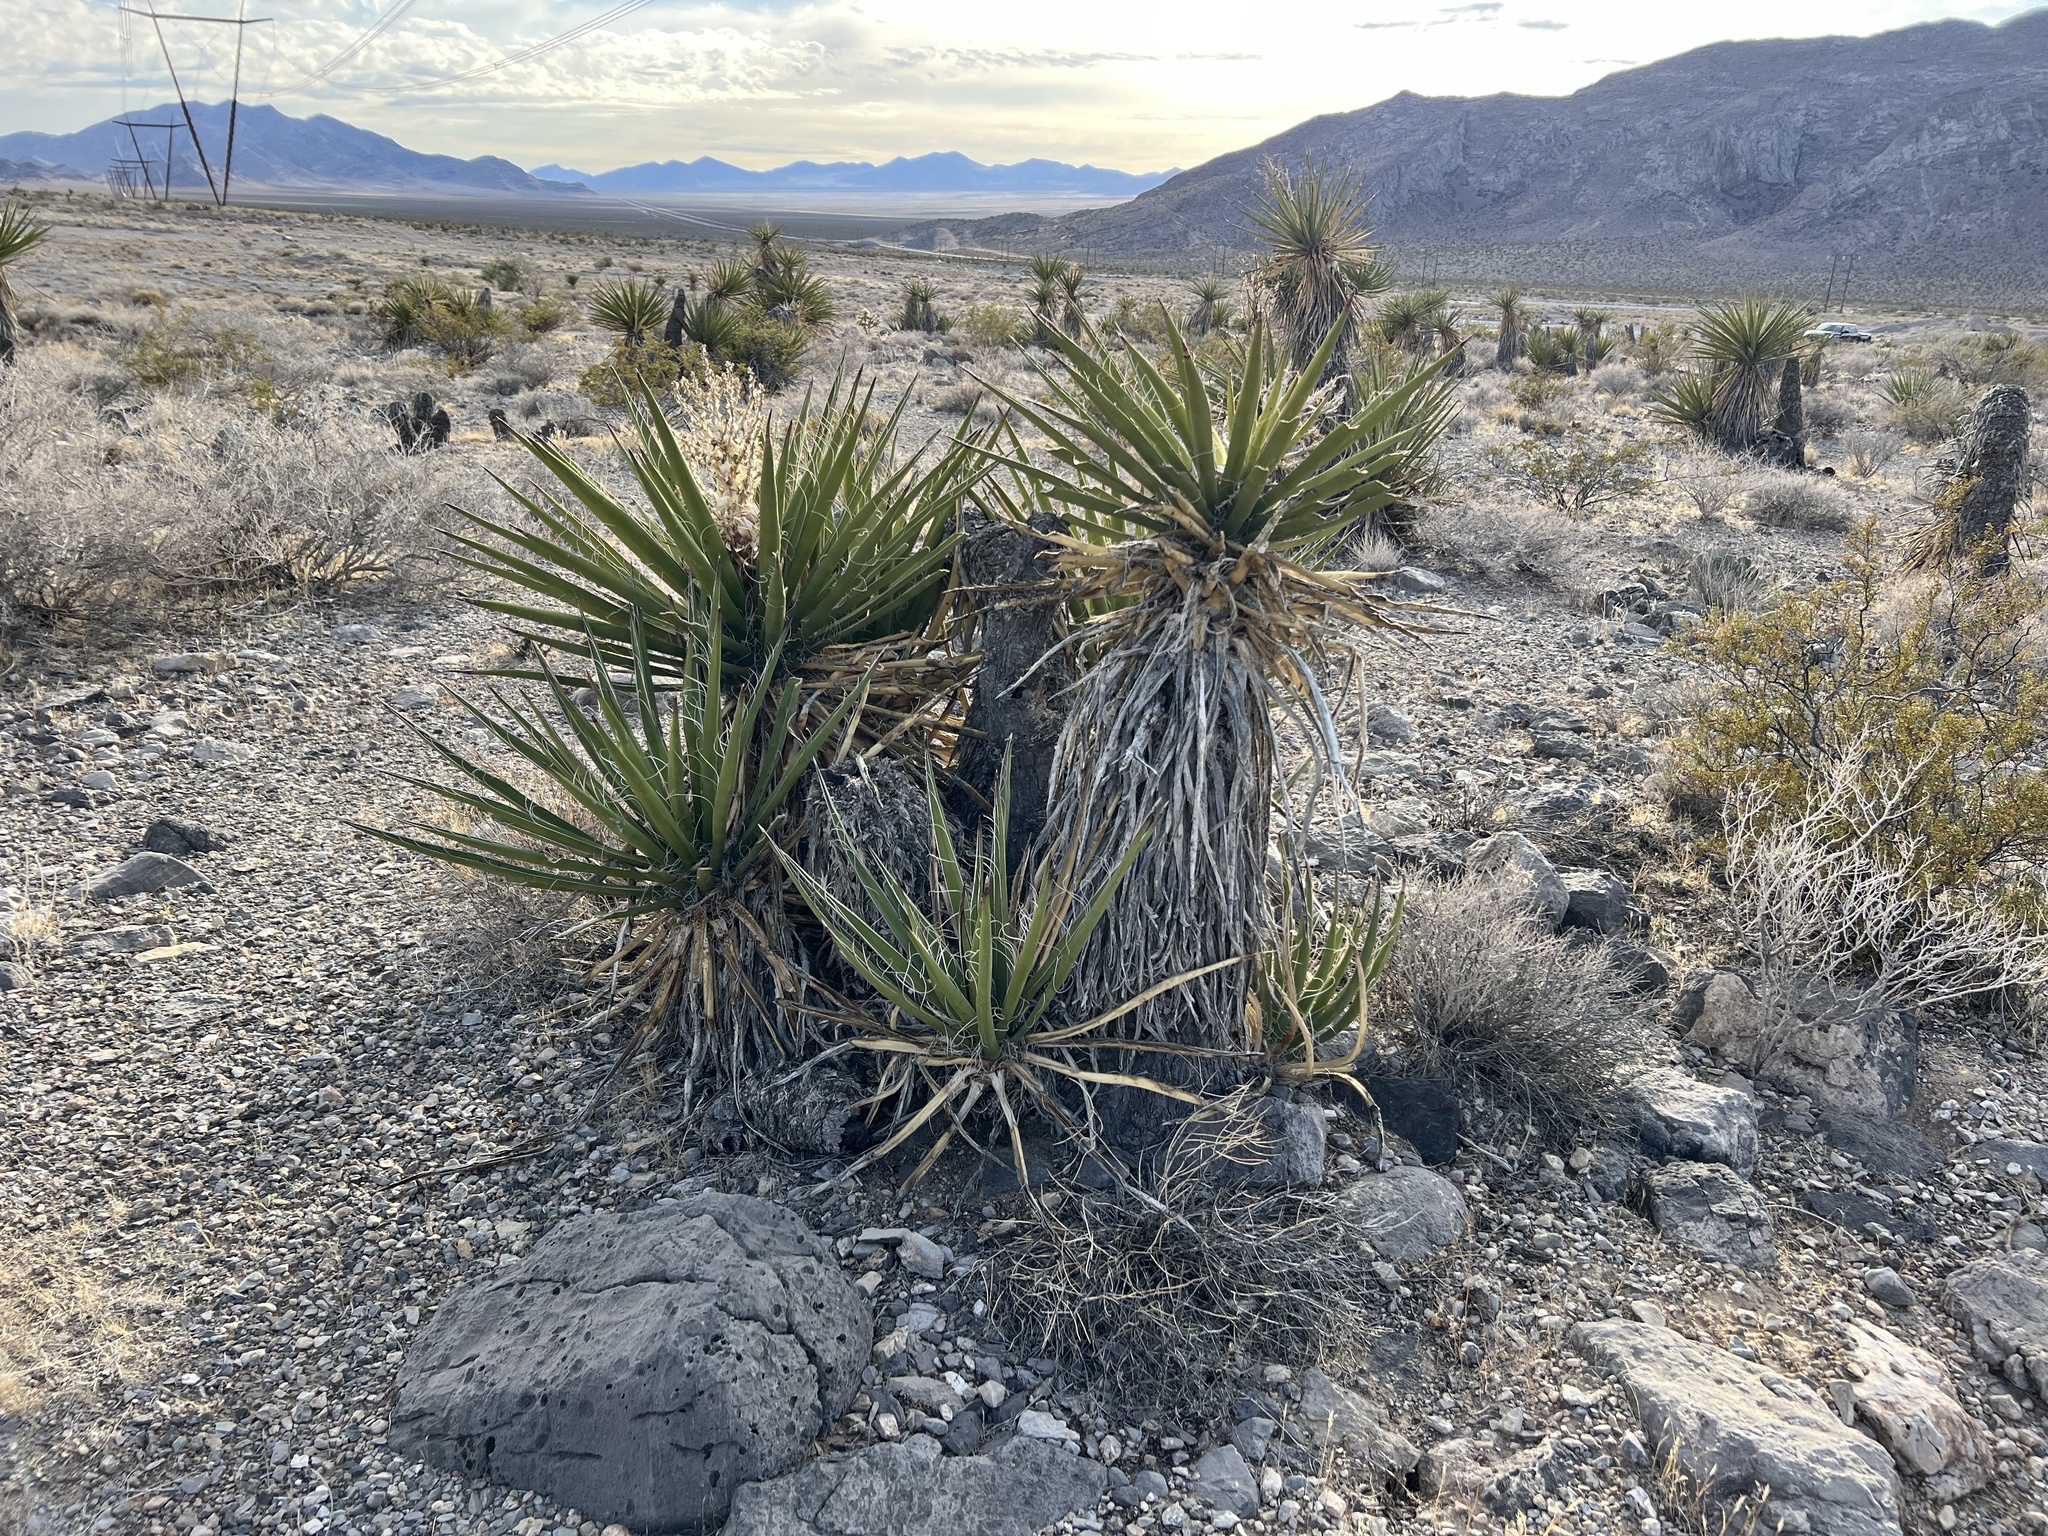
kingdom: Plantae
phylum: Tracheophyta
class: Liliopsida
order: Asparagales
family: Asparagaceae
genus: Yucca
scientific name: Yucca schidigera
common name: Mojave yucca
